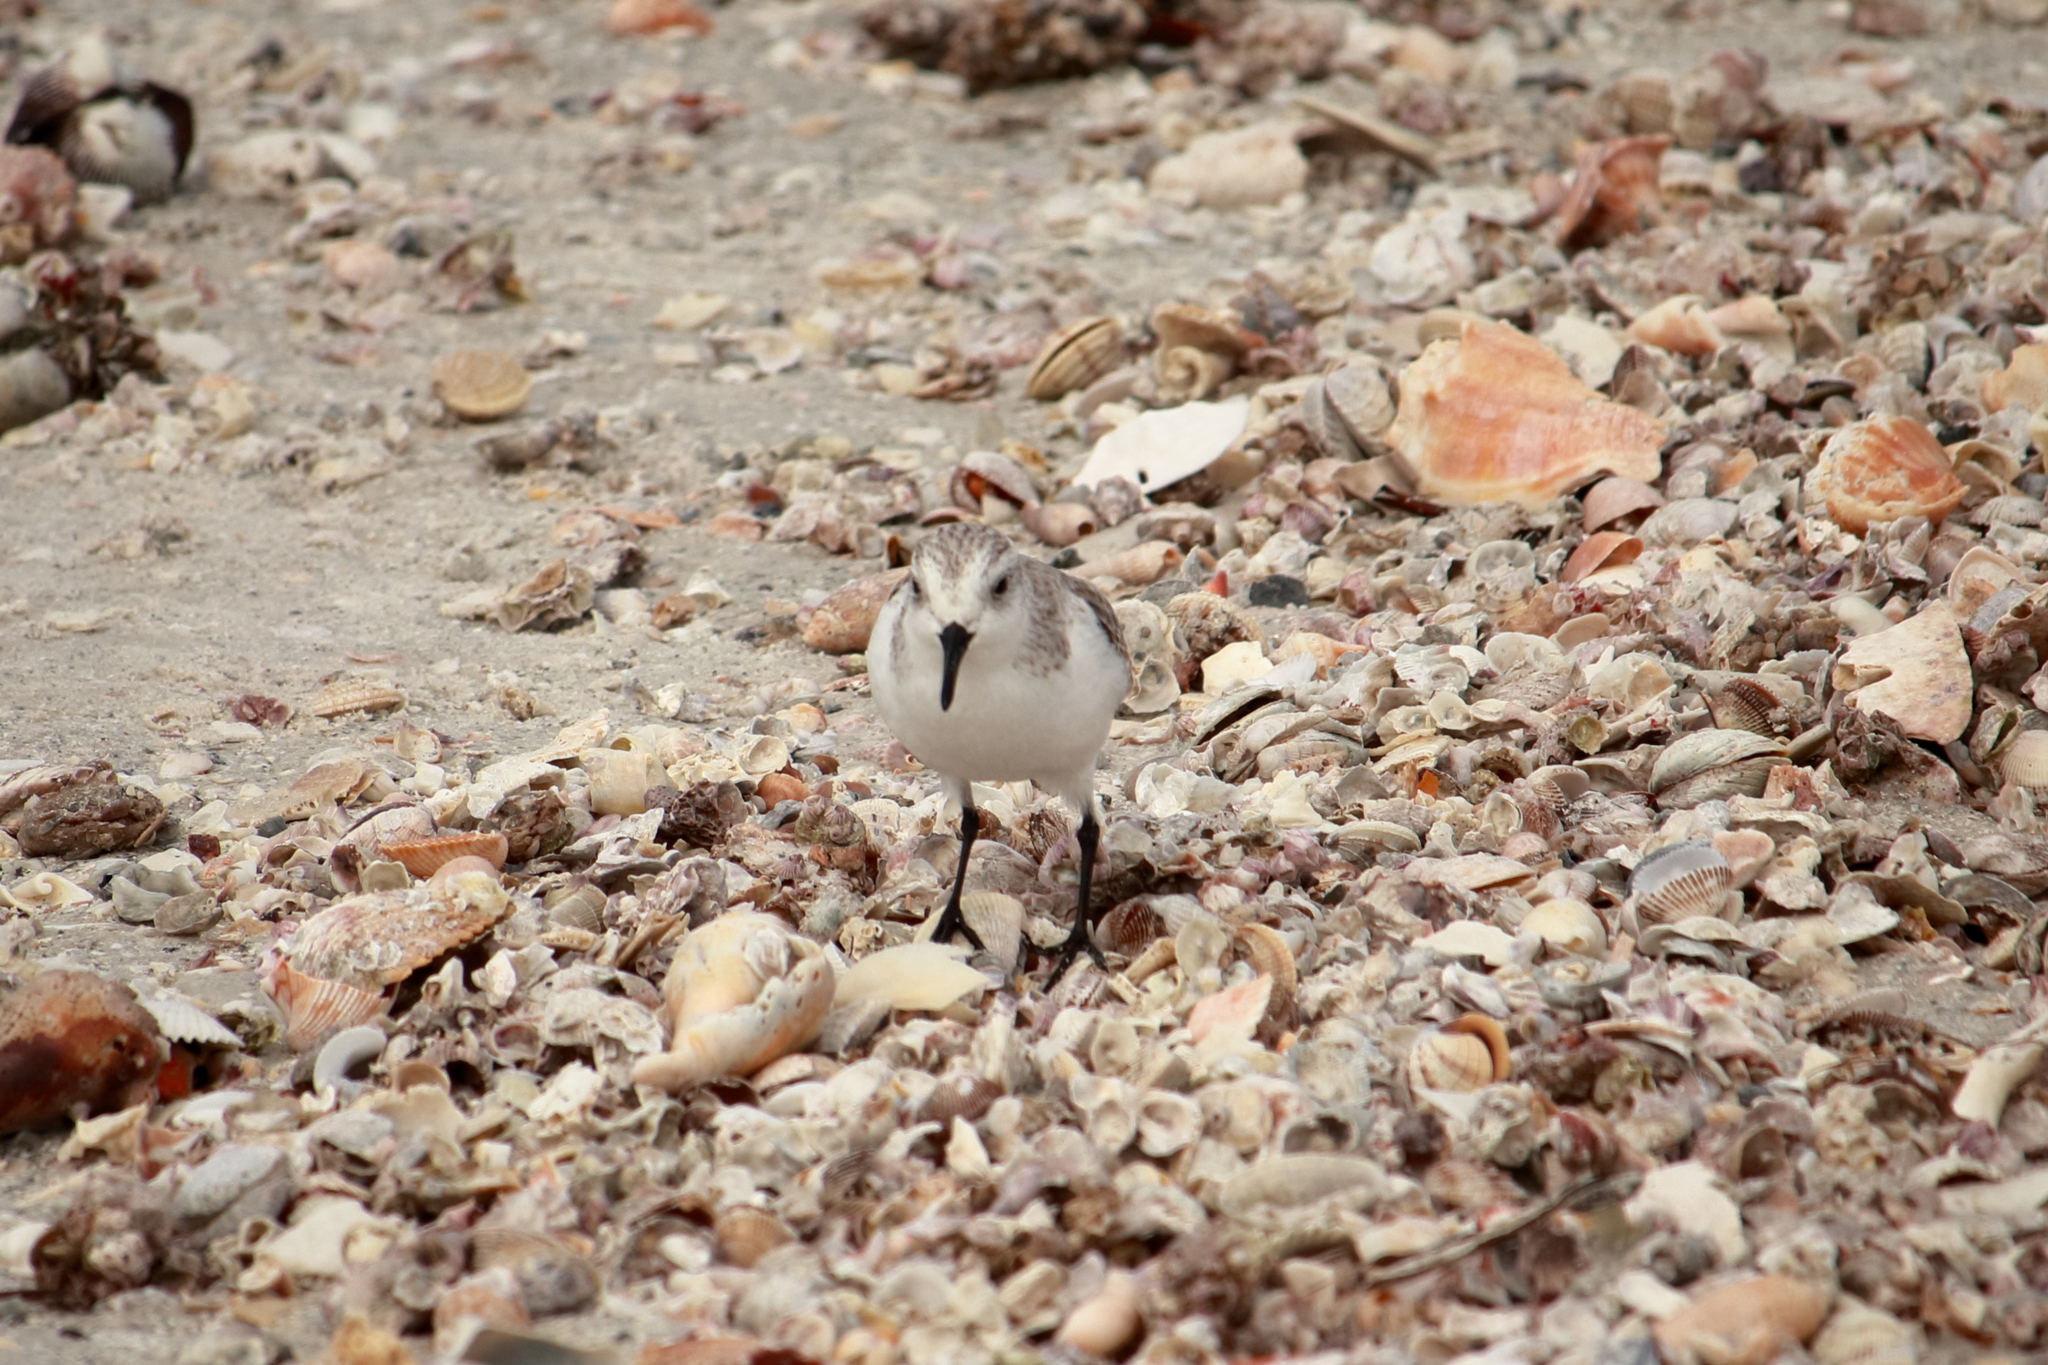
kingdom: Animalia
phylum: Chordata
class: Aves
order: Charadriiformes
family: Scolopacidae
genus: Calidris
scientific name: Calidris alba
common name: Sanderling
